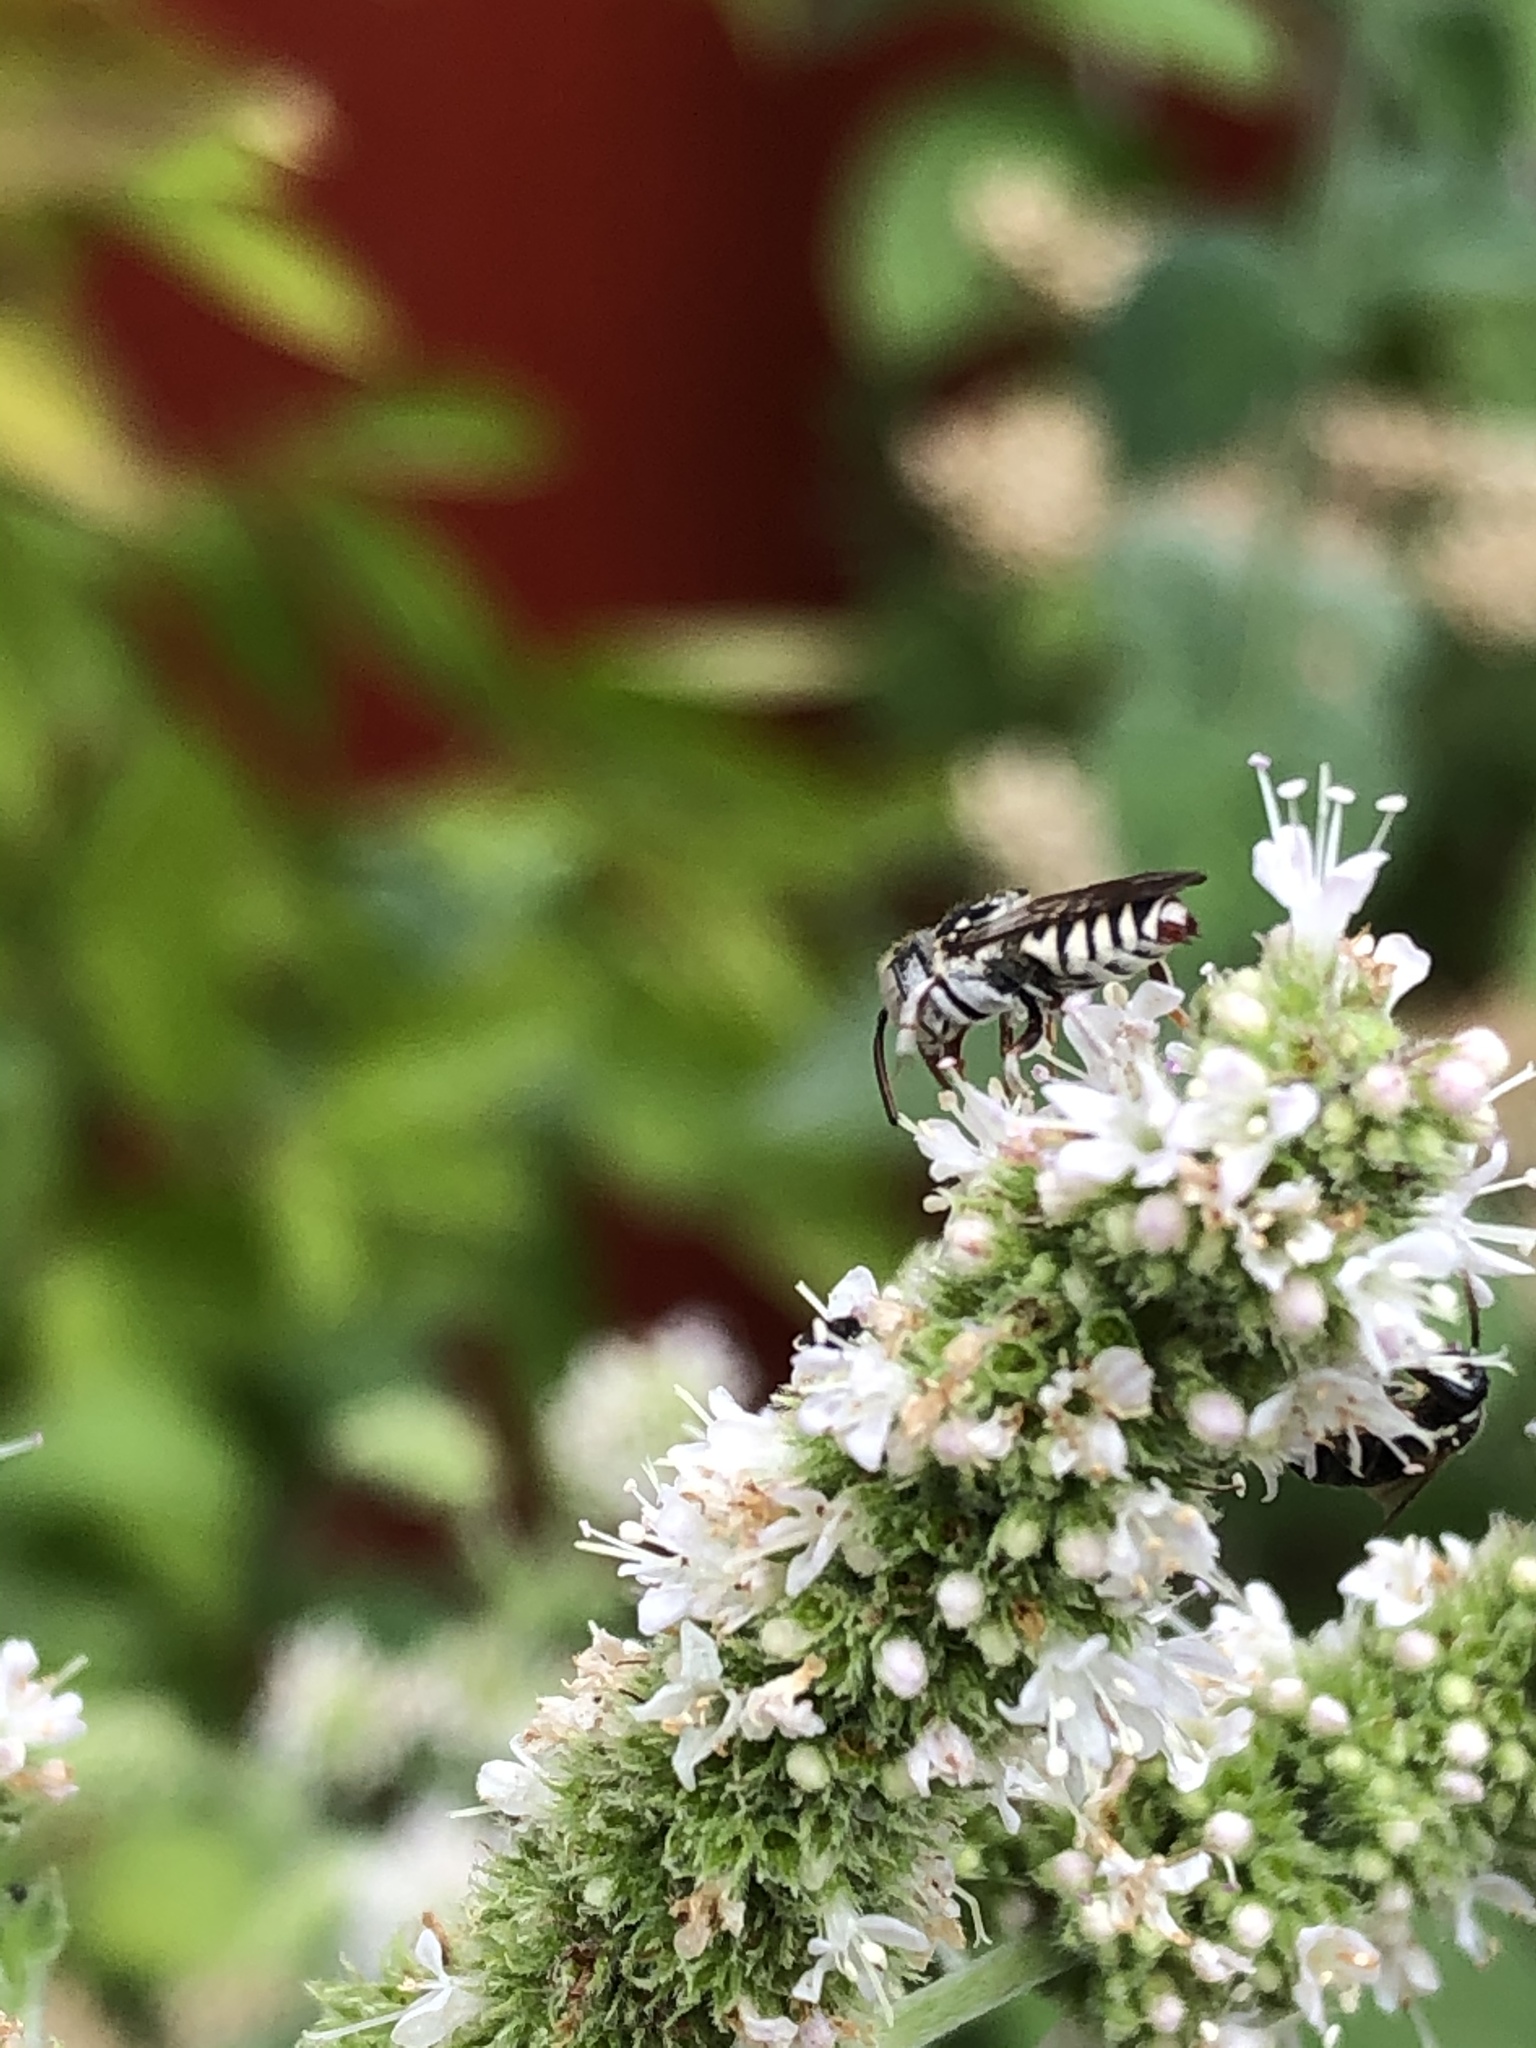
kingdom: Animalia
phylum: Arthropoda
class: Insecta
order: Hymenoptera
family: Megachilidae
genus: Coelioxys
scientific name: Coelioxys coturnix
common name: Red-tailed cuckoo-leaf-cutter bee
